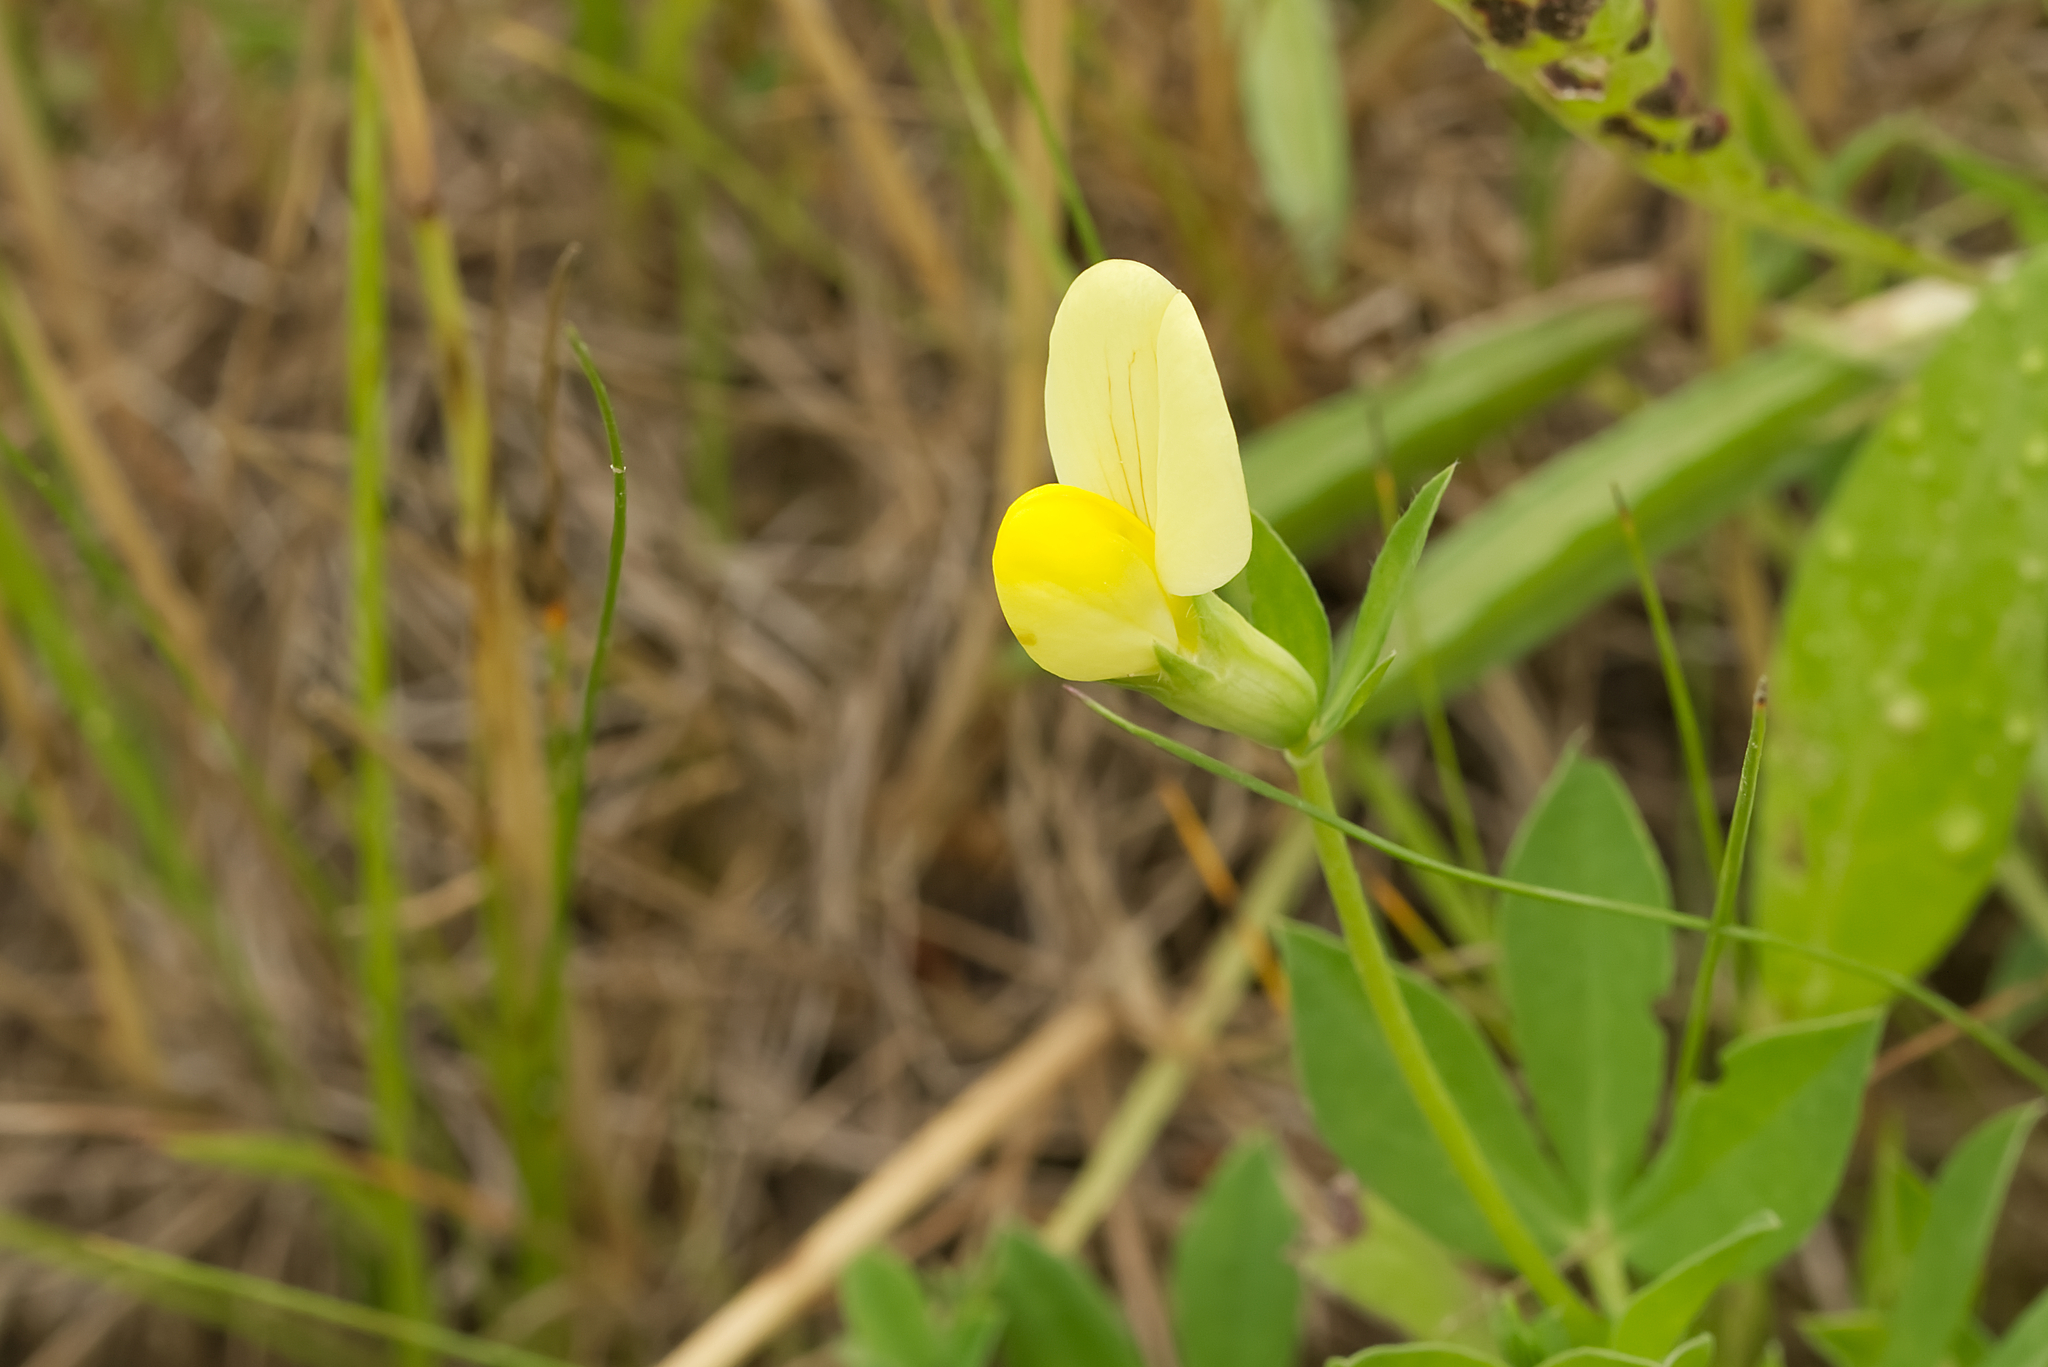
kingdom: Plantae
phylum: Tracheophyta
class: Magnoliopsida
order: Fabales
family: Fabaceae
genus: Lotus
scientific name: Lotus maritimus
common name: Dragon's-teeth
